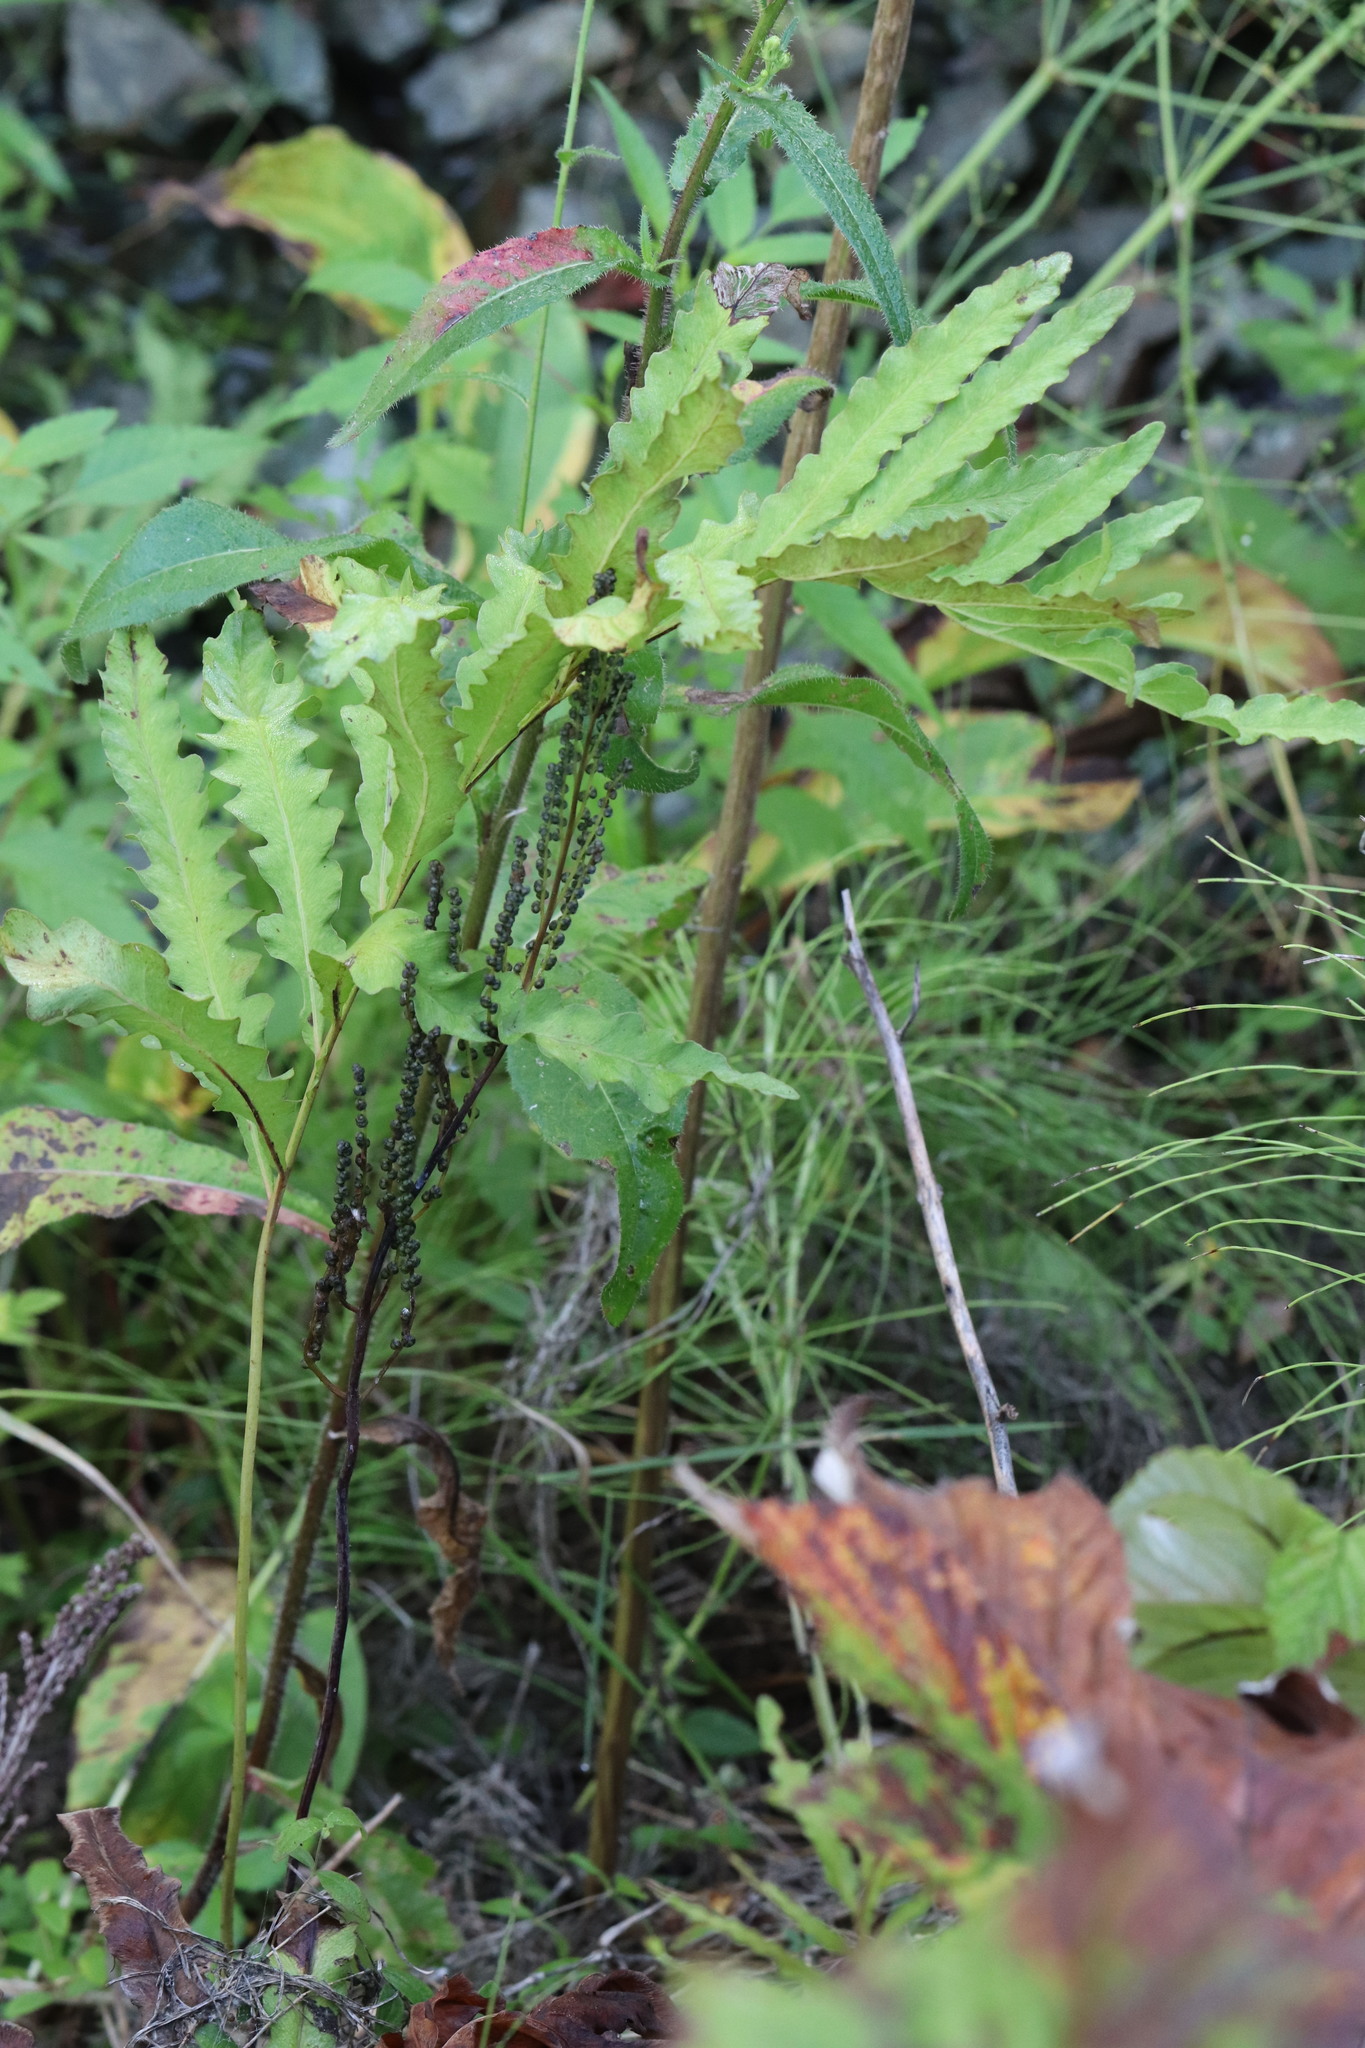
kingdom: Plantae
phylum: Tracheophyta
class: Polypodiopsida
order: Polypodiales
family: Onocleaceae
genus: Onoclea
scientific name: Onoclea sensibilis
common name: Sensitive fern
